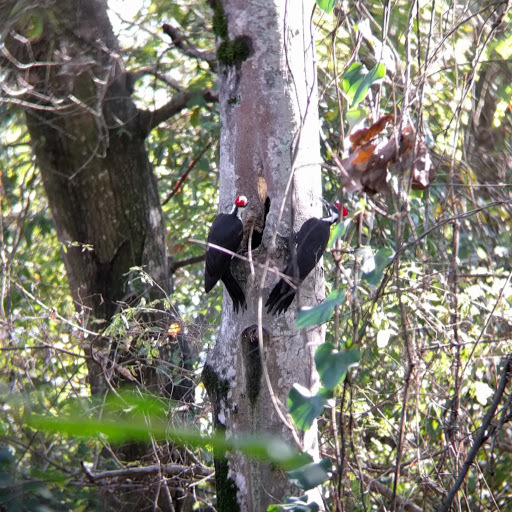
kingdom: Animalia
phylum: Chordata
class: Aves
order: Piciformes
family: Picidae
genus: Dryocopus
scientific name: Dryocopus pileatus
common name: Pileated woodpecker
